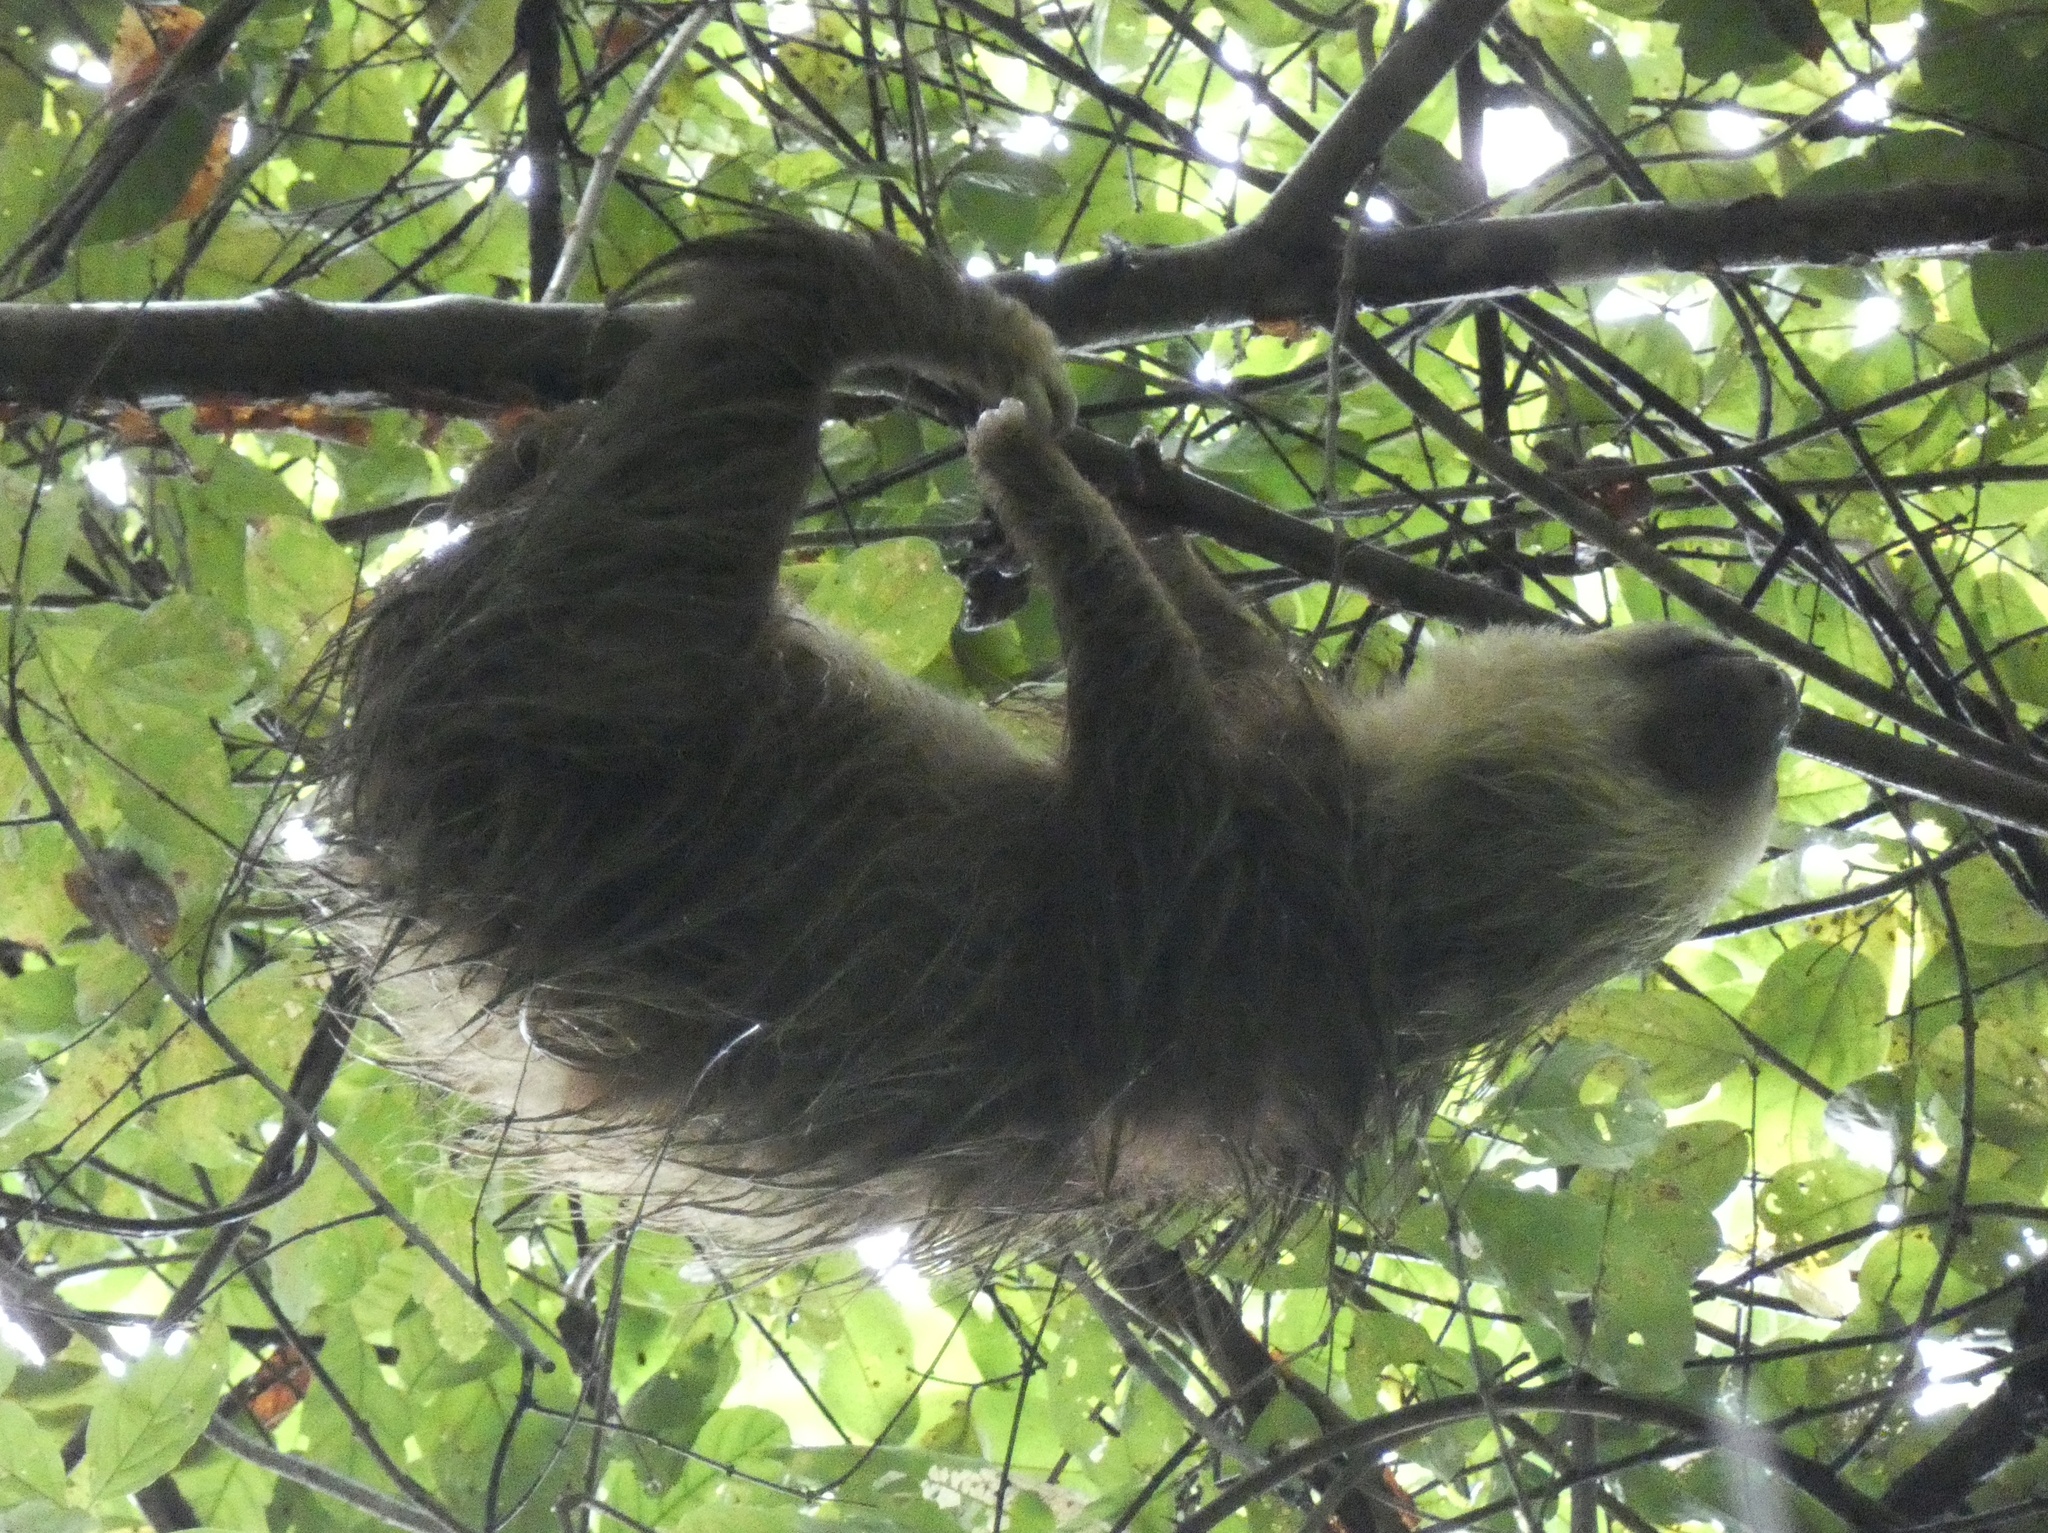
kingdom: Animalia
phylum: Chordata
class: Mammalia
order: Pilosa
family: Megalonychidae
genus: Choloepus
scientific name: Choloepus hoffmanni
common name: Hoffmann's two-toed sloth
